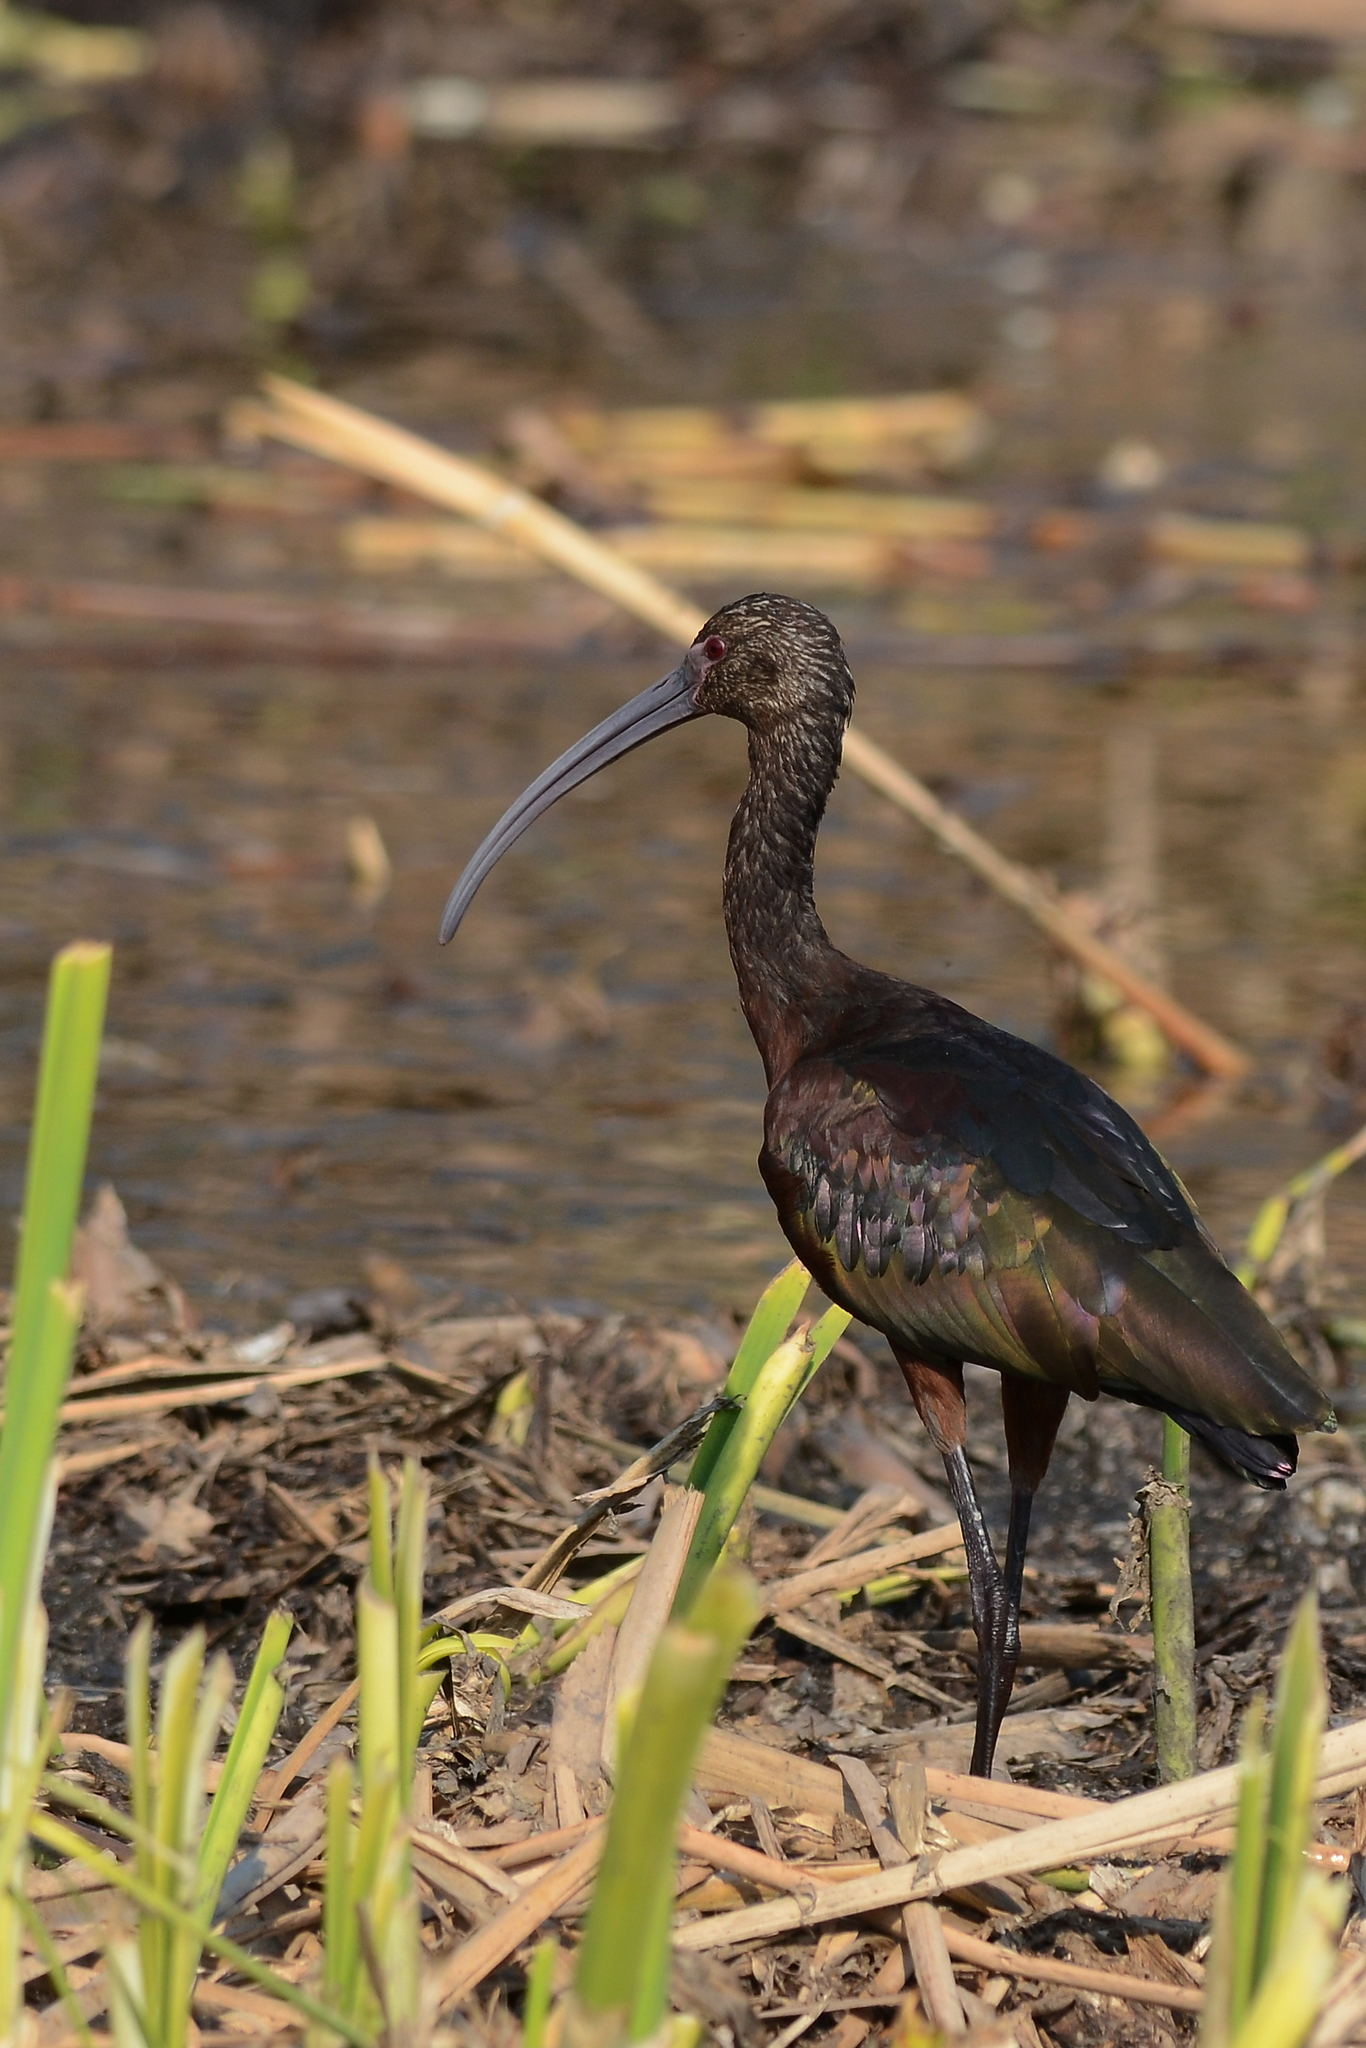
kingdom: Animalia
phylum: Chordata
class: Aves
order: Pelecaniformes
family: Threskiornithidae
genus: Plegadis
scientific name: Plegadis chihi
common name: White-faced ibis
